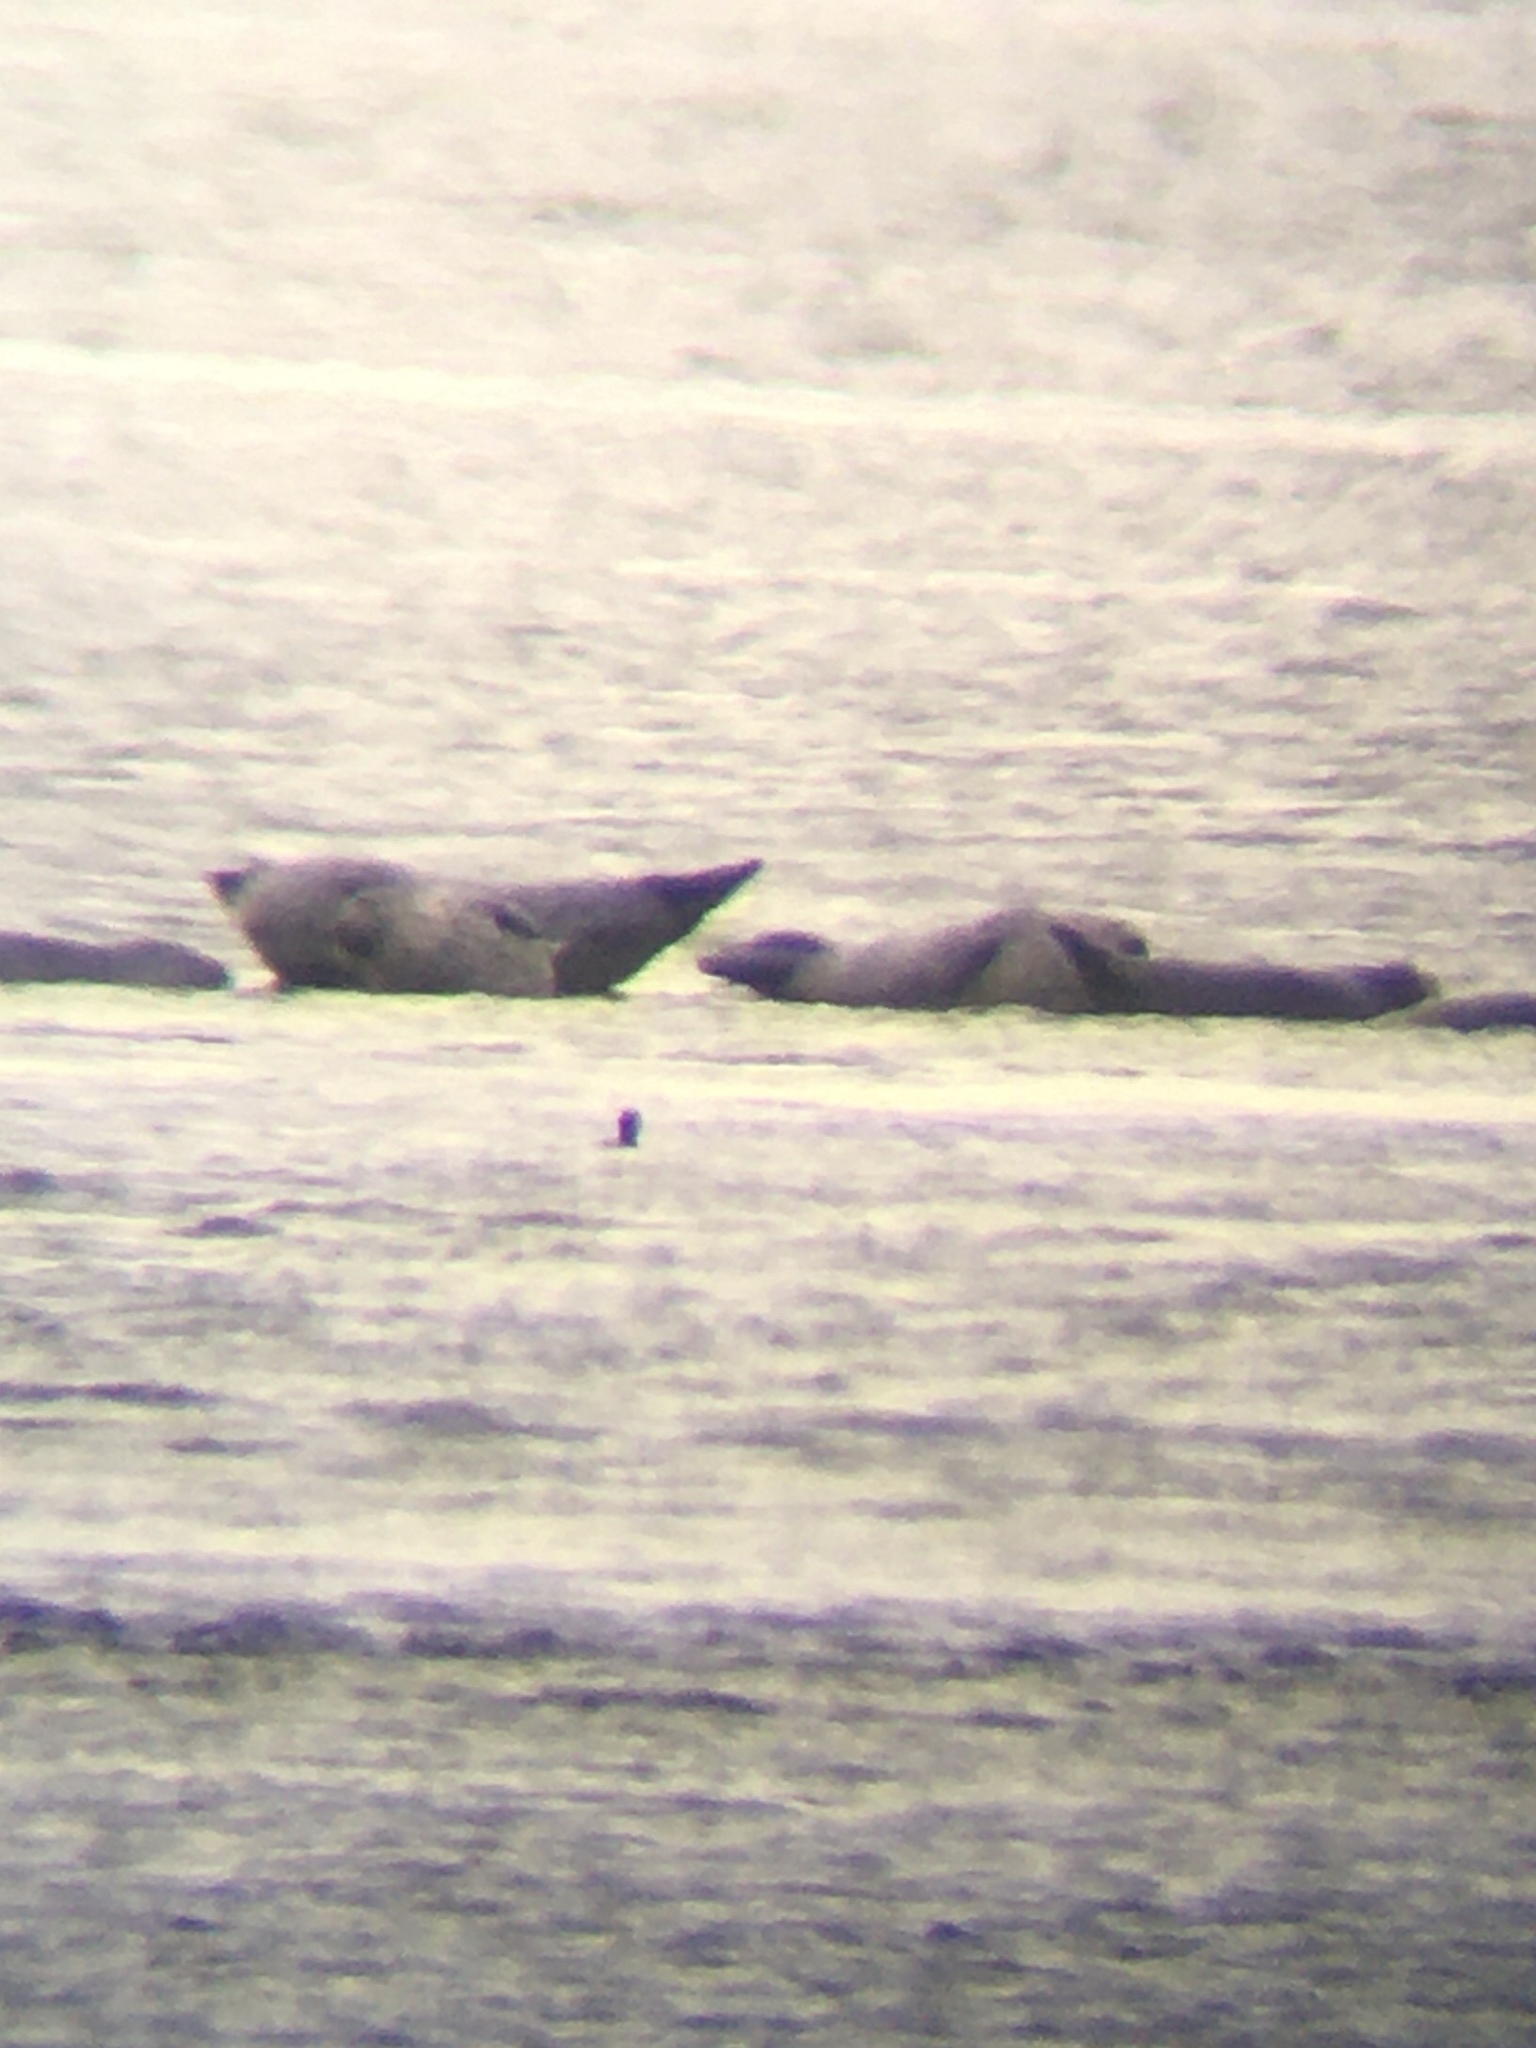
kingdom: Animalia
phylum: Chordata
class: Mammalia
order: Carnivora
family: Phocidae
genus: Phoca
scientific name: Phoca vitulina
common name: Harbor seal
